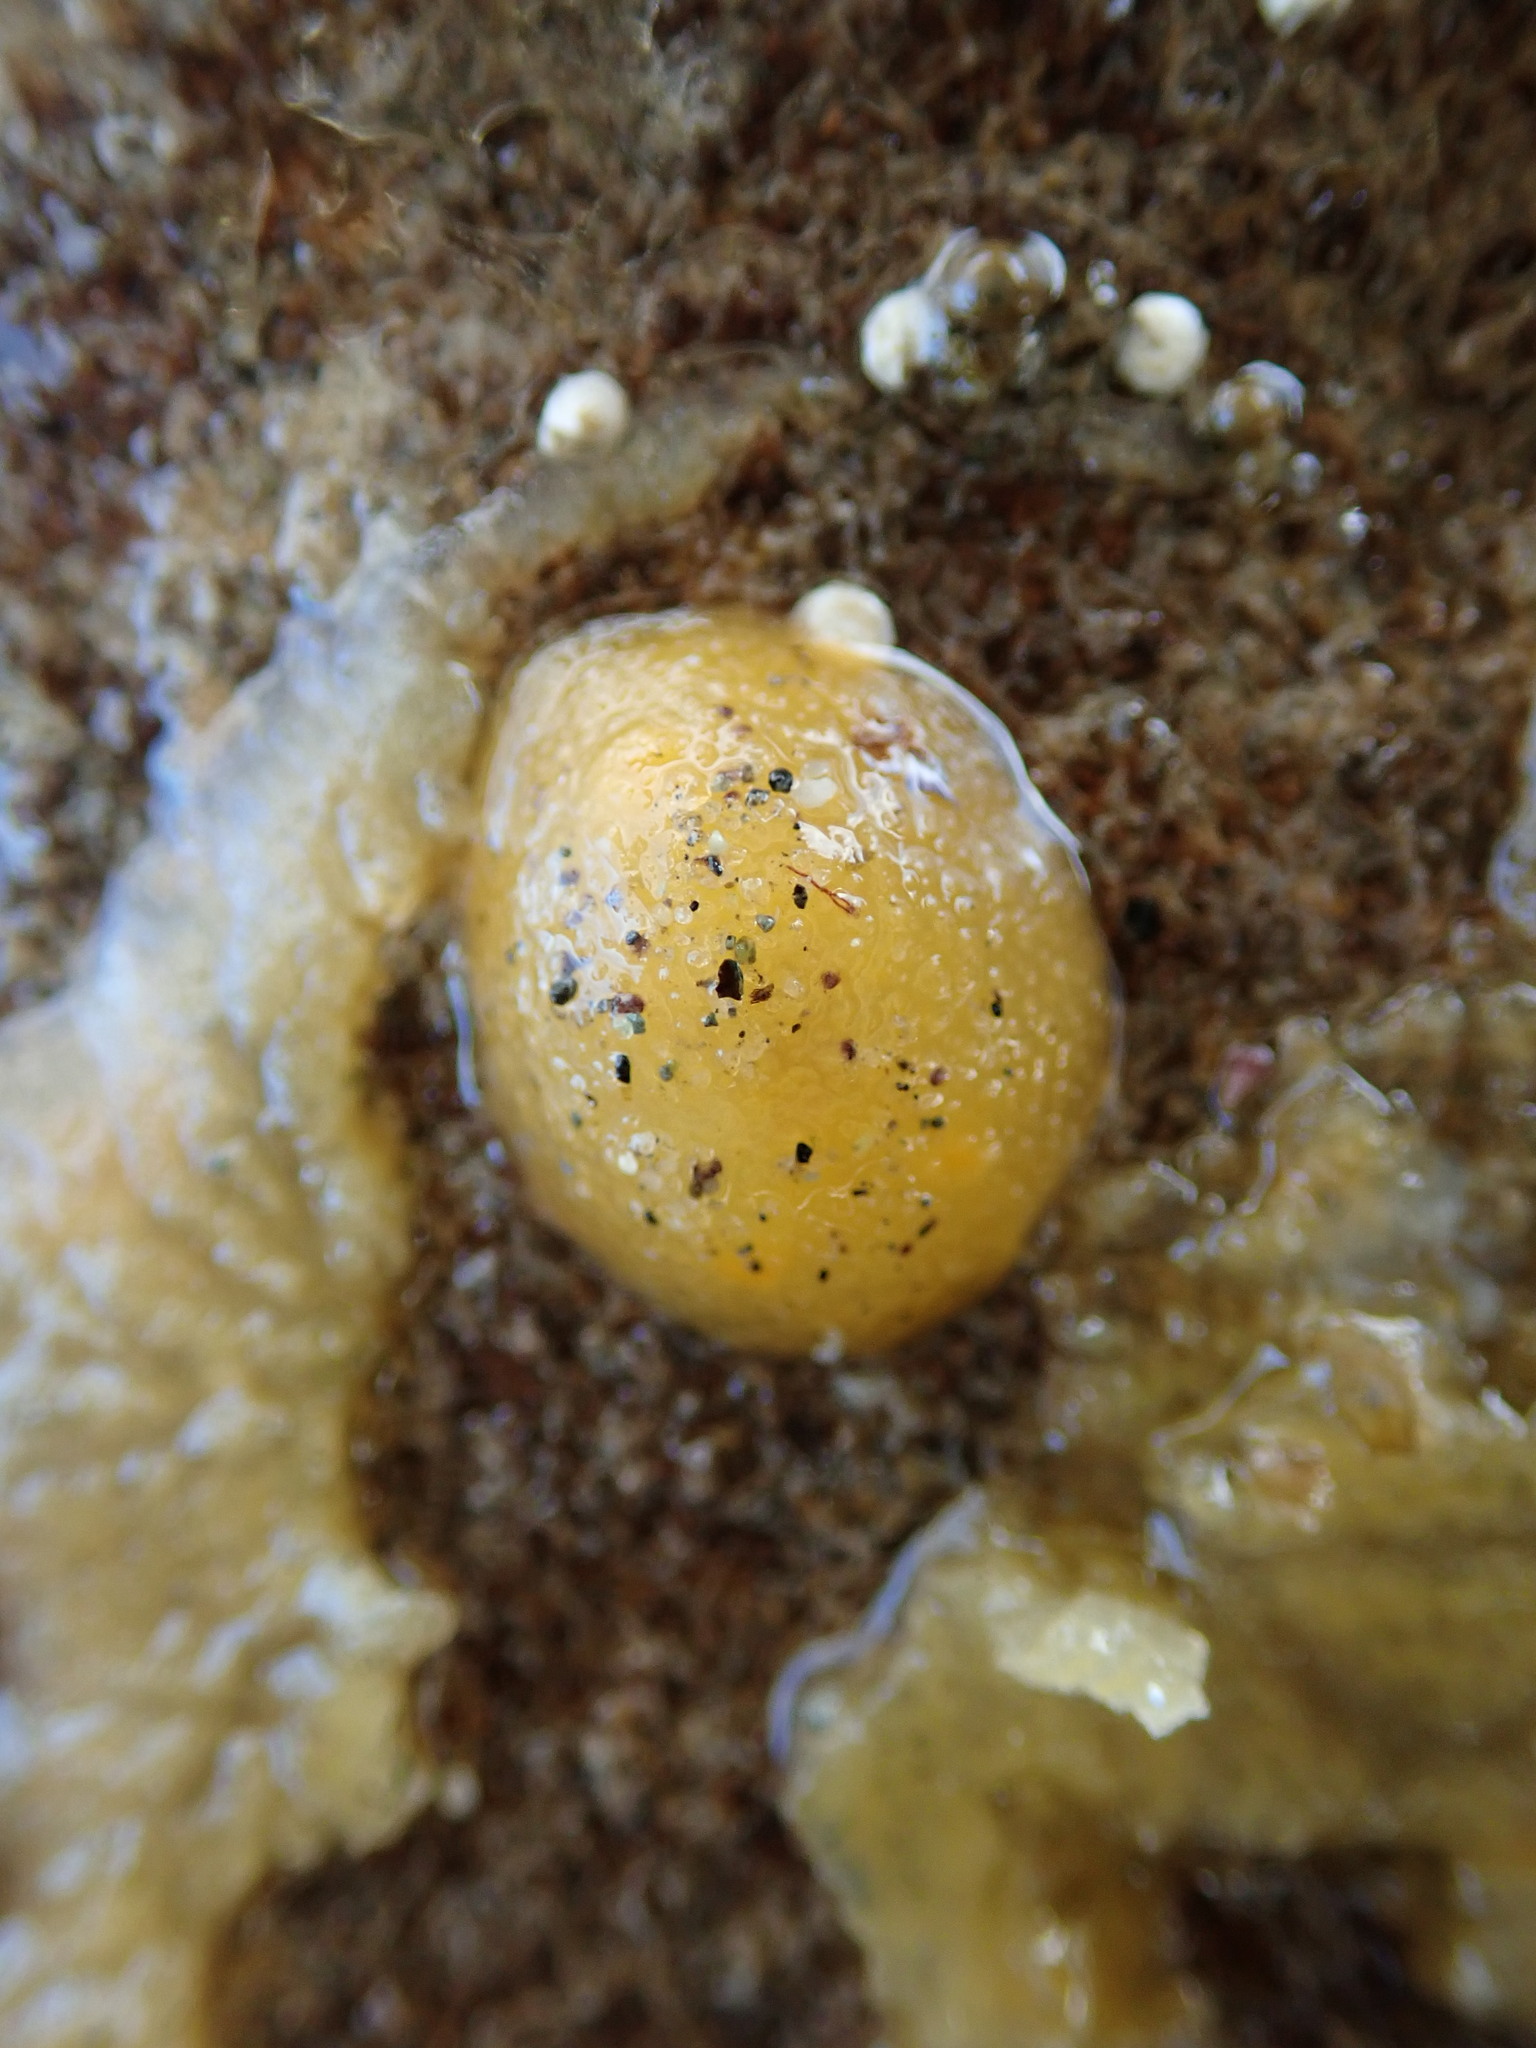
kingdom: Animalia
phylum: Mollusca
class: Gastropoda
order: Nudibranchia
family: Dorididae
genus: Doris
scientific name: Doris montereyensis
